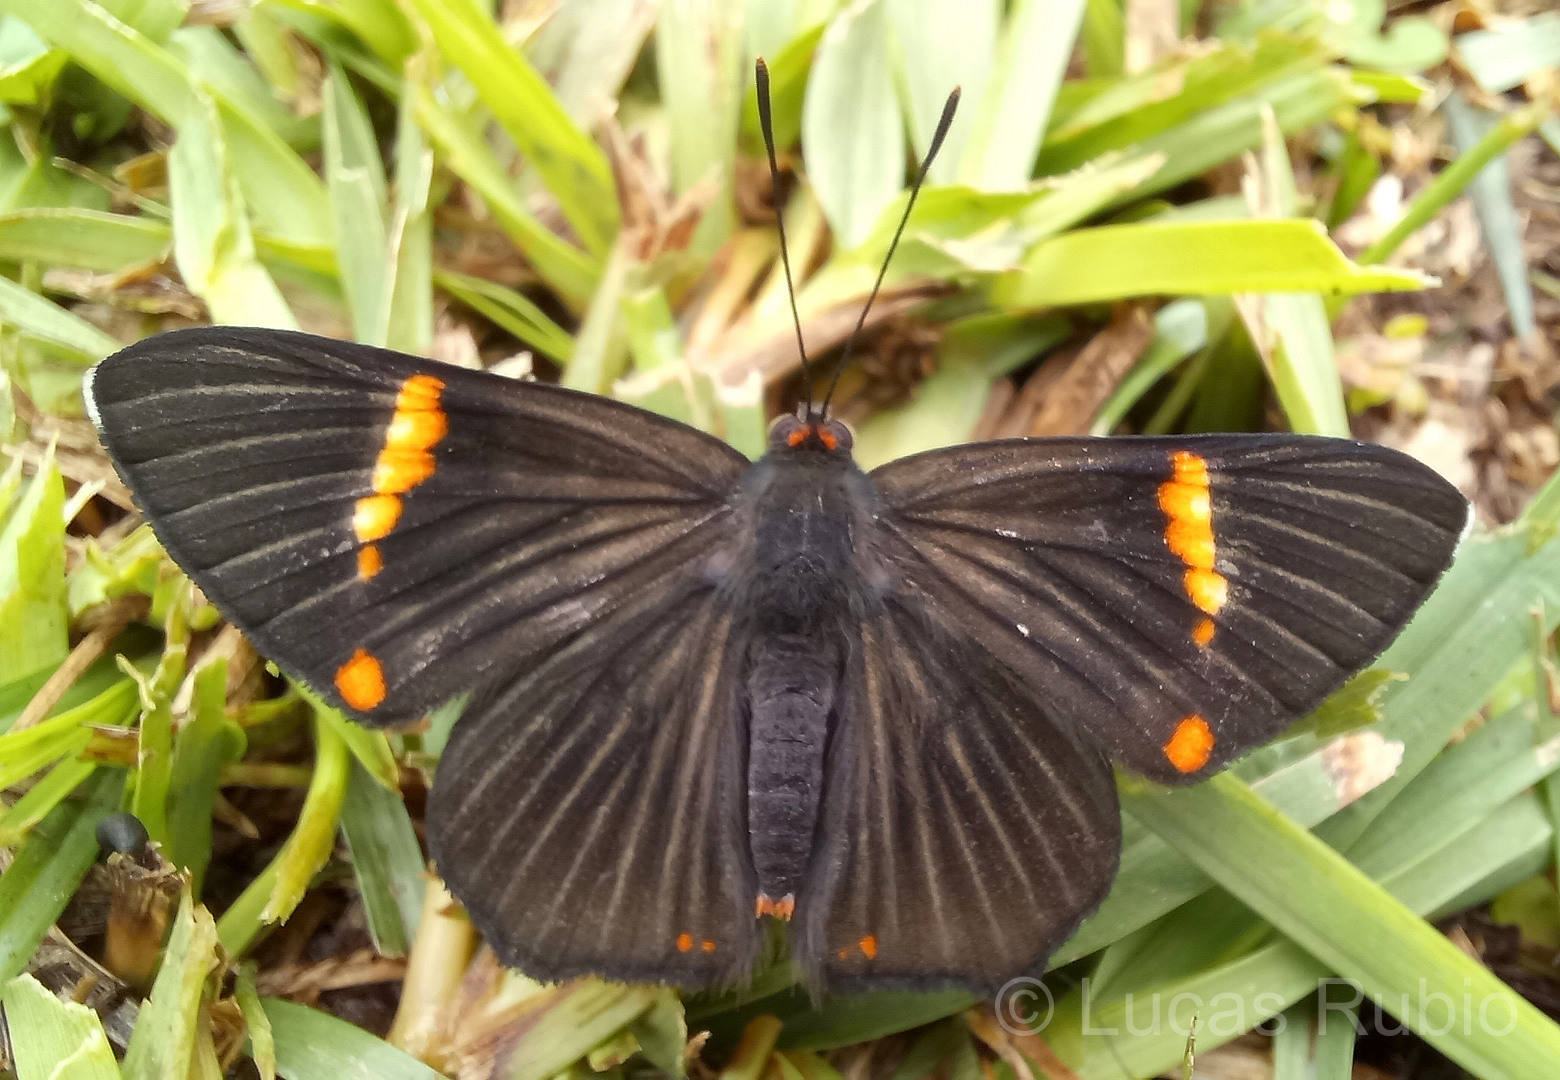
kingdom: Animalia
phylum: Arthropoda
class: Insecta
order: Lepidoptera
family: Riodinidae
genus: Riodina
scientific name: Riodina lycisca
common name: Lycisca metalmark
